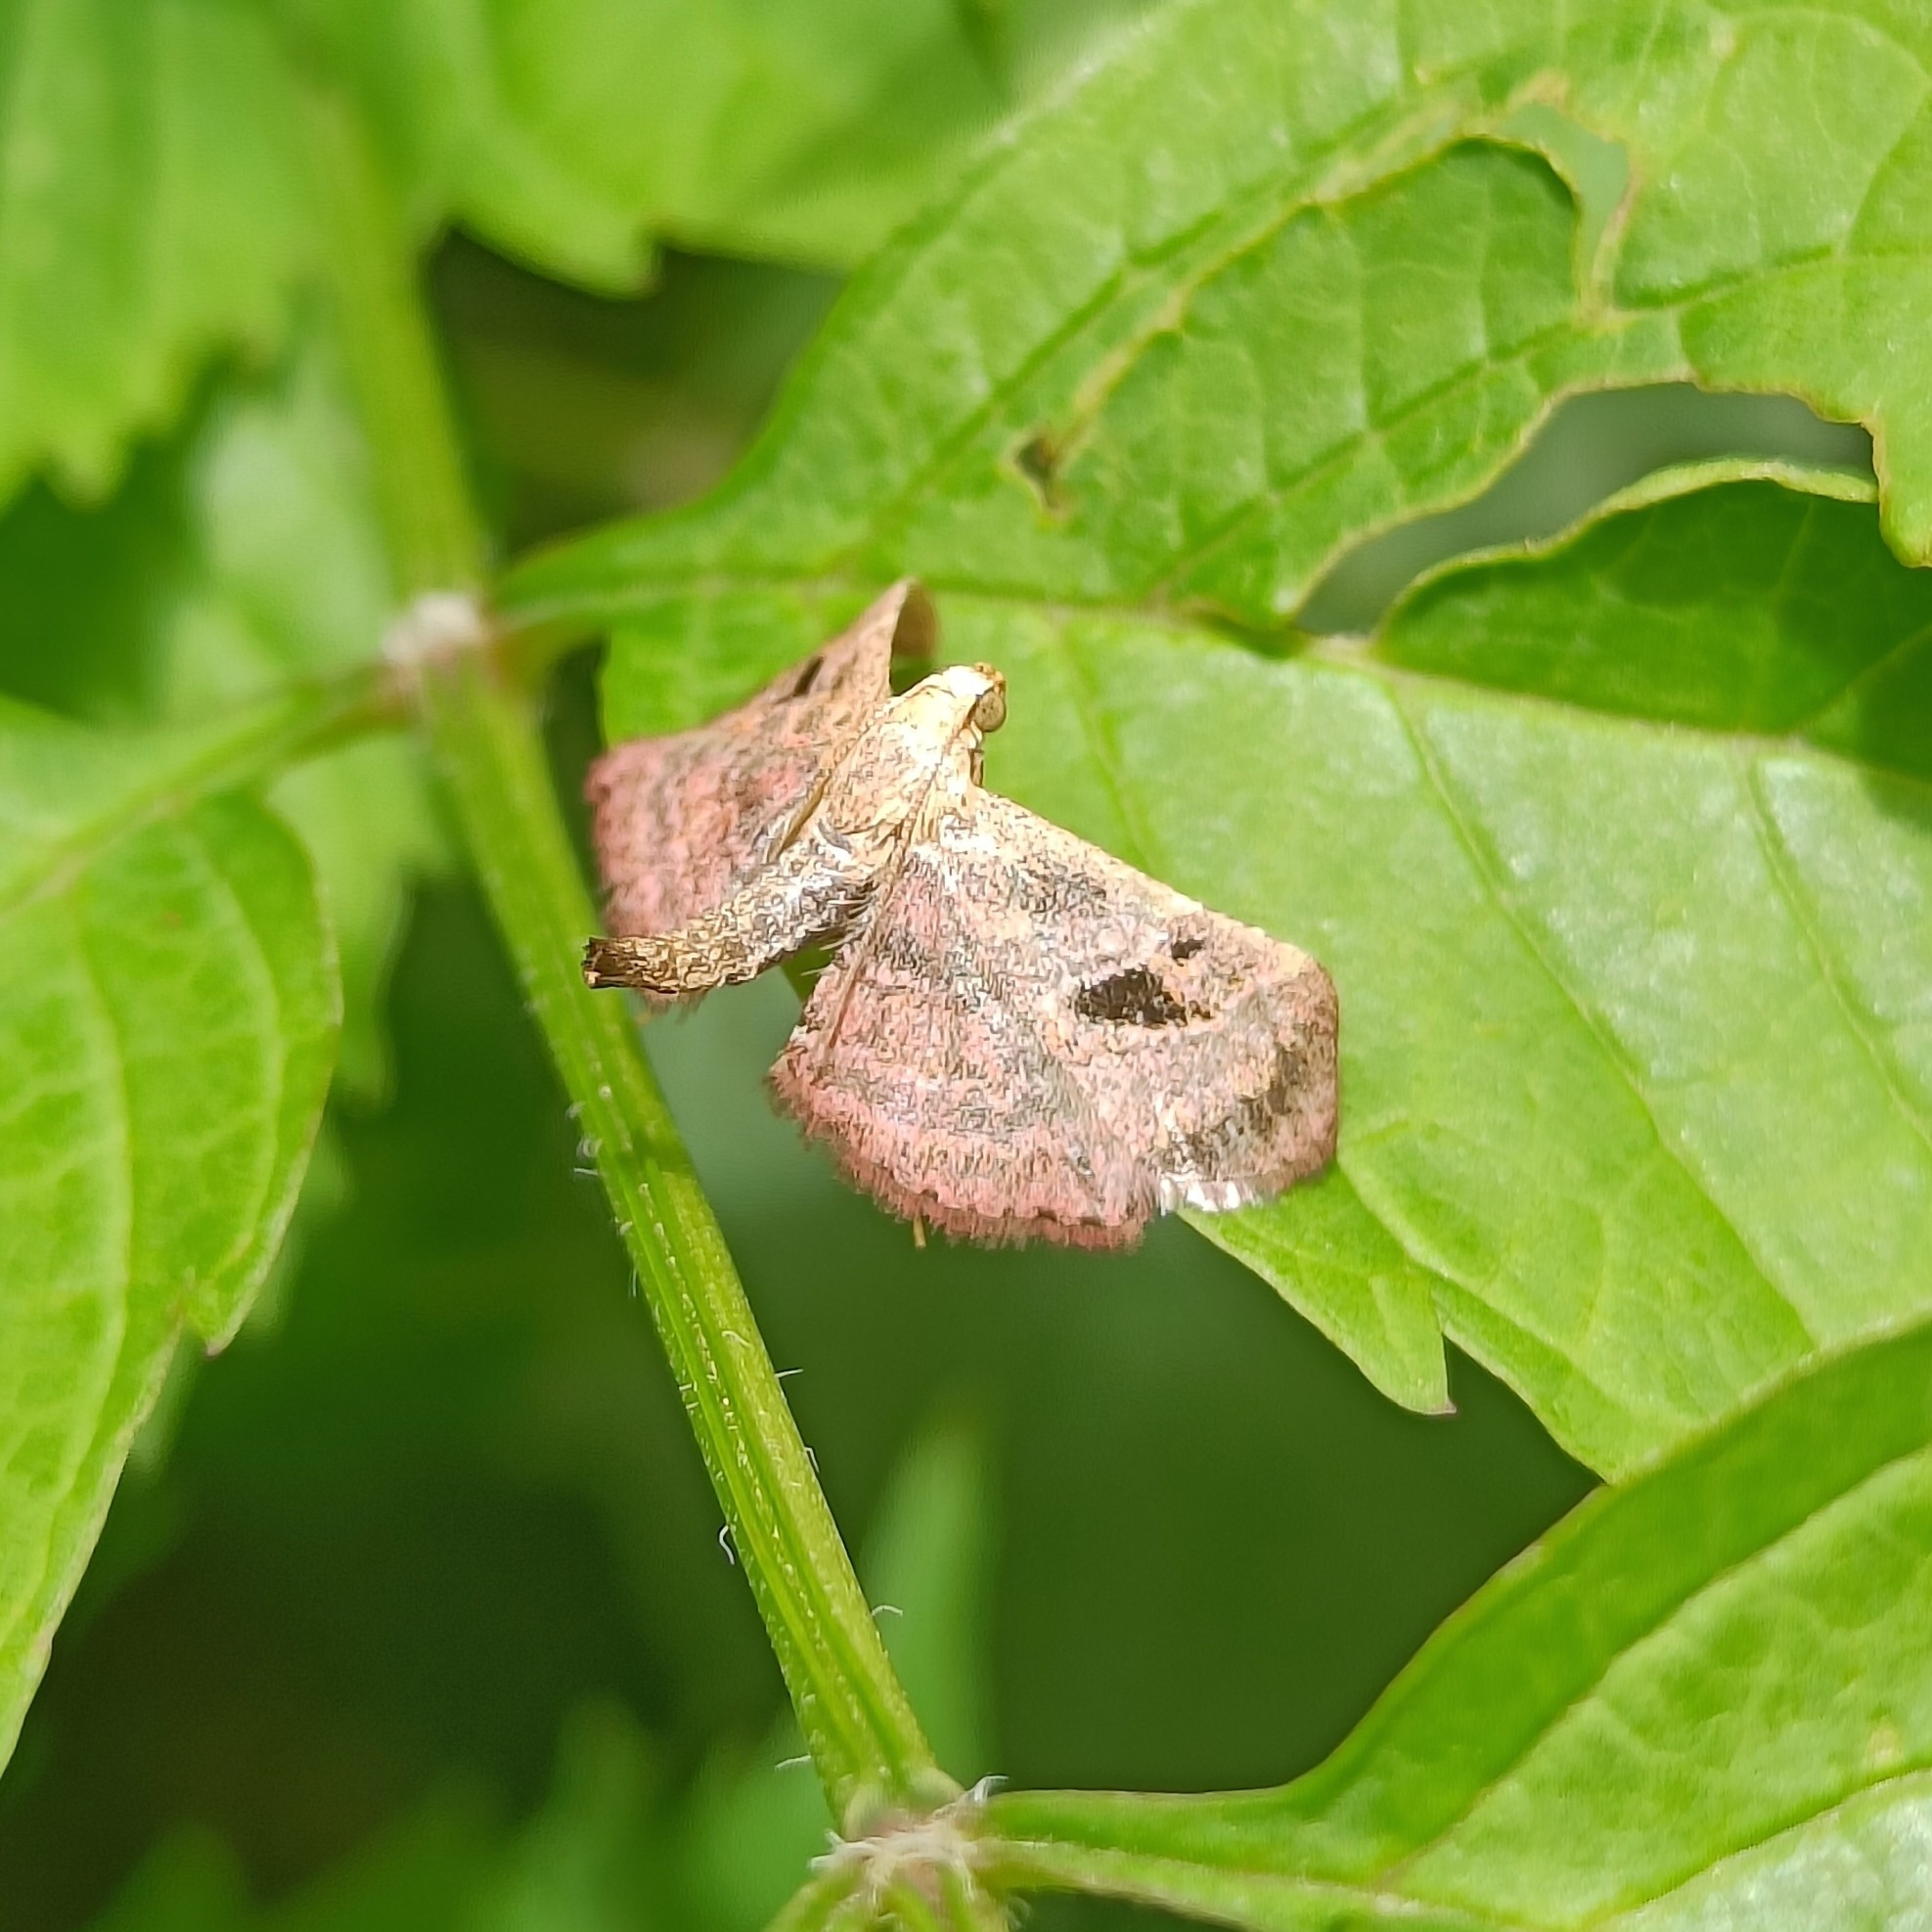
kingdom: Animalia
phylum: Arthropoda
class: Insecta
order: Lepidoptera
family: Pyralidae
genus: Perisseretma
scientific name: Perisseretma endotrichalis
